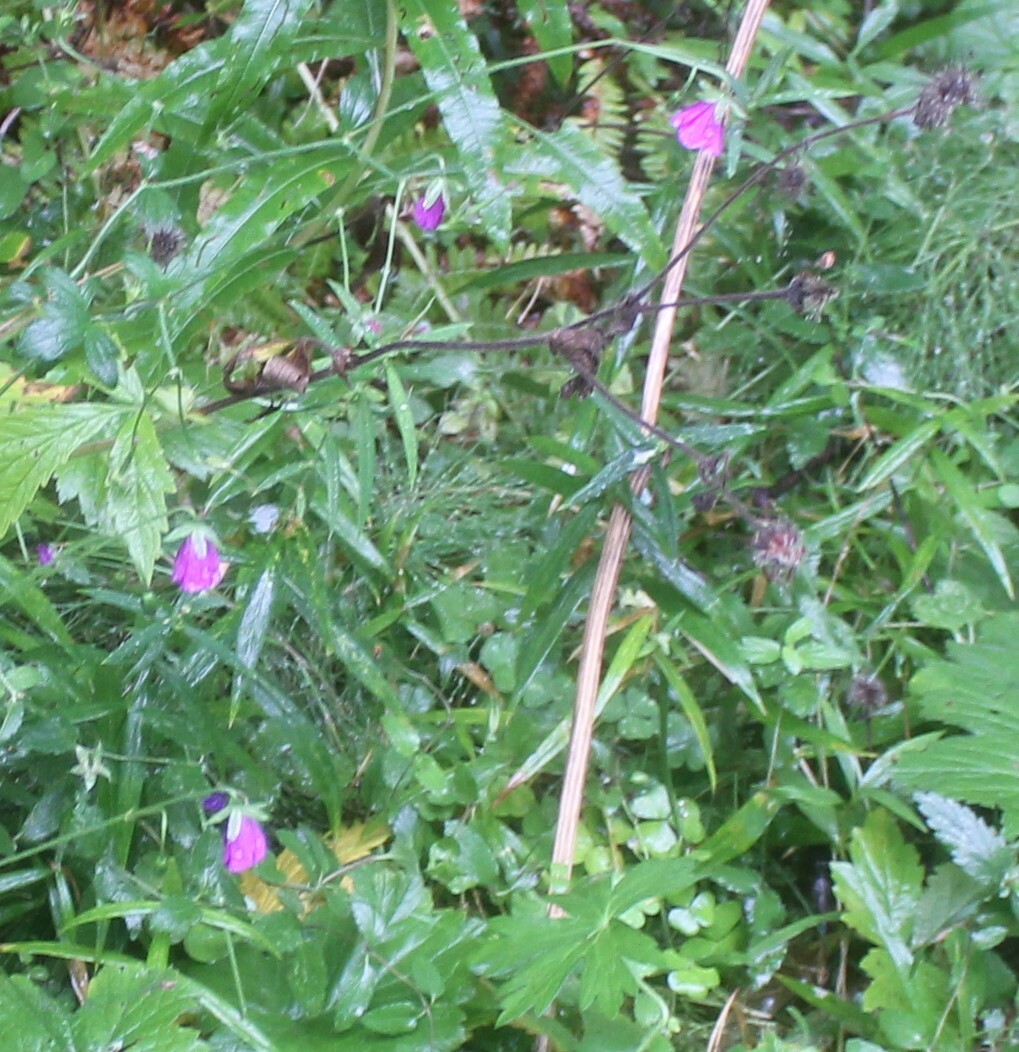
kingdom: Plantae
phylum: Tracheophyta
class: Magnoliopsida
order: Geraniales
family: Geraniaceae
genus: Geranium
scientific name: Geranium palustre
